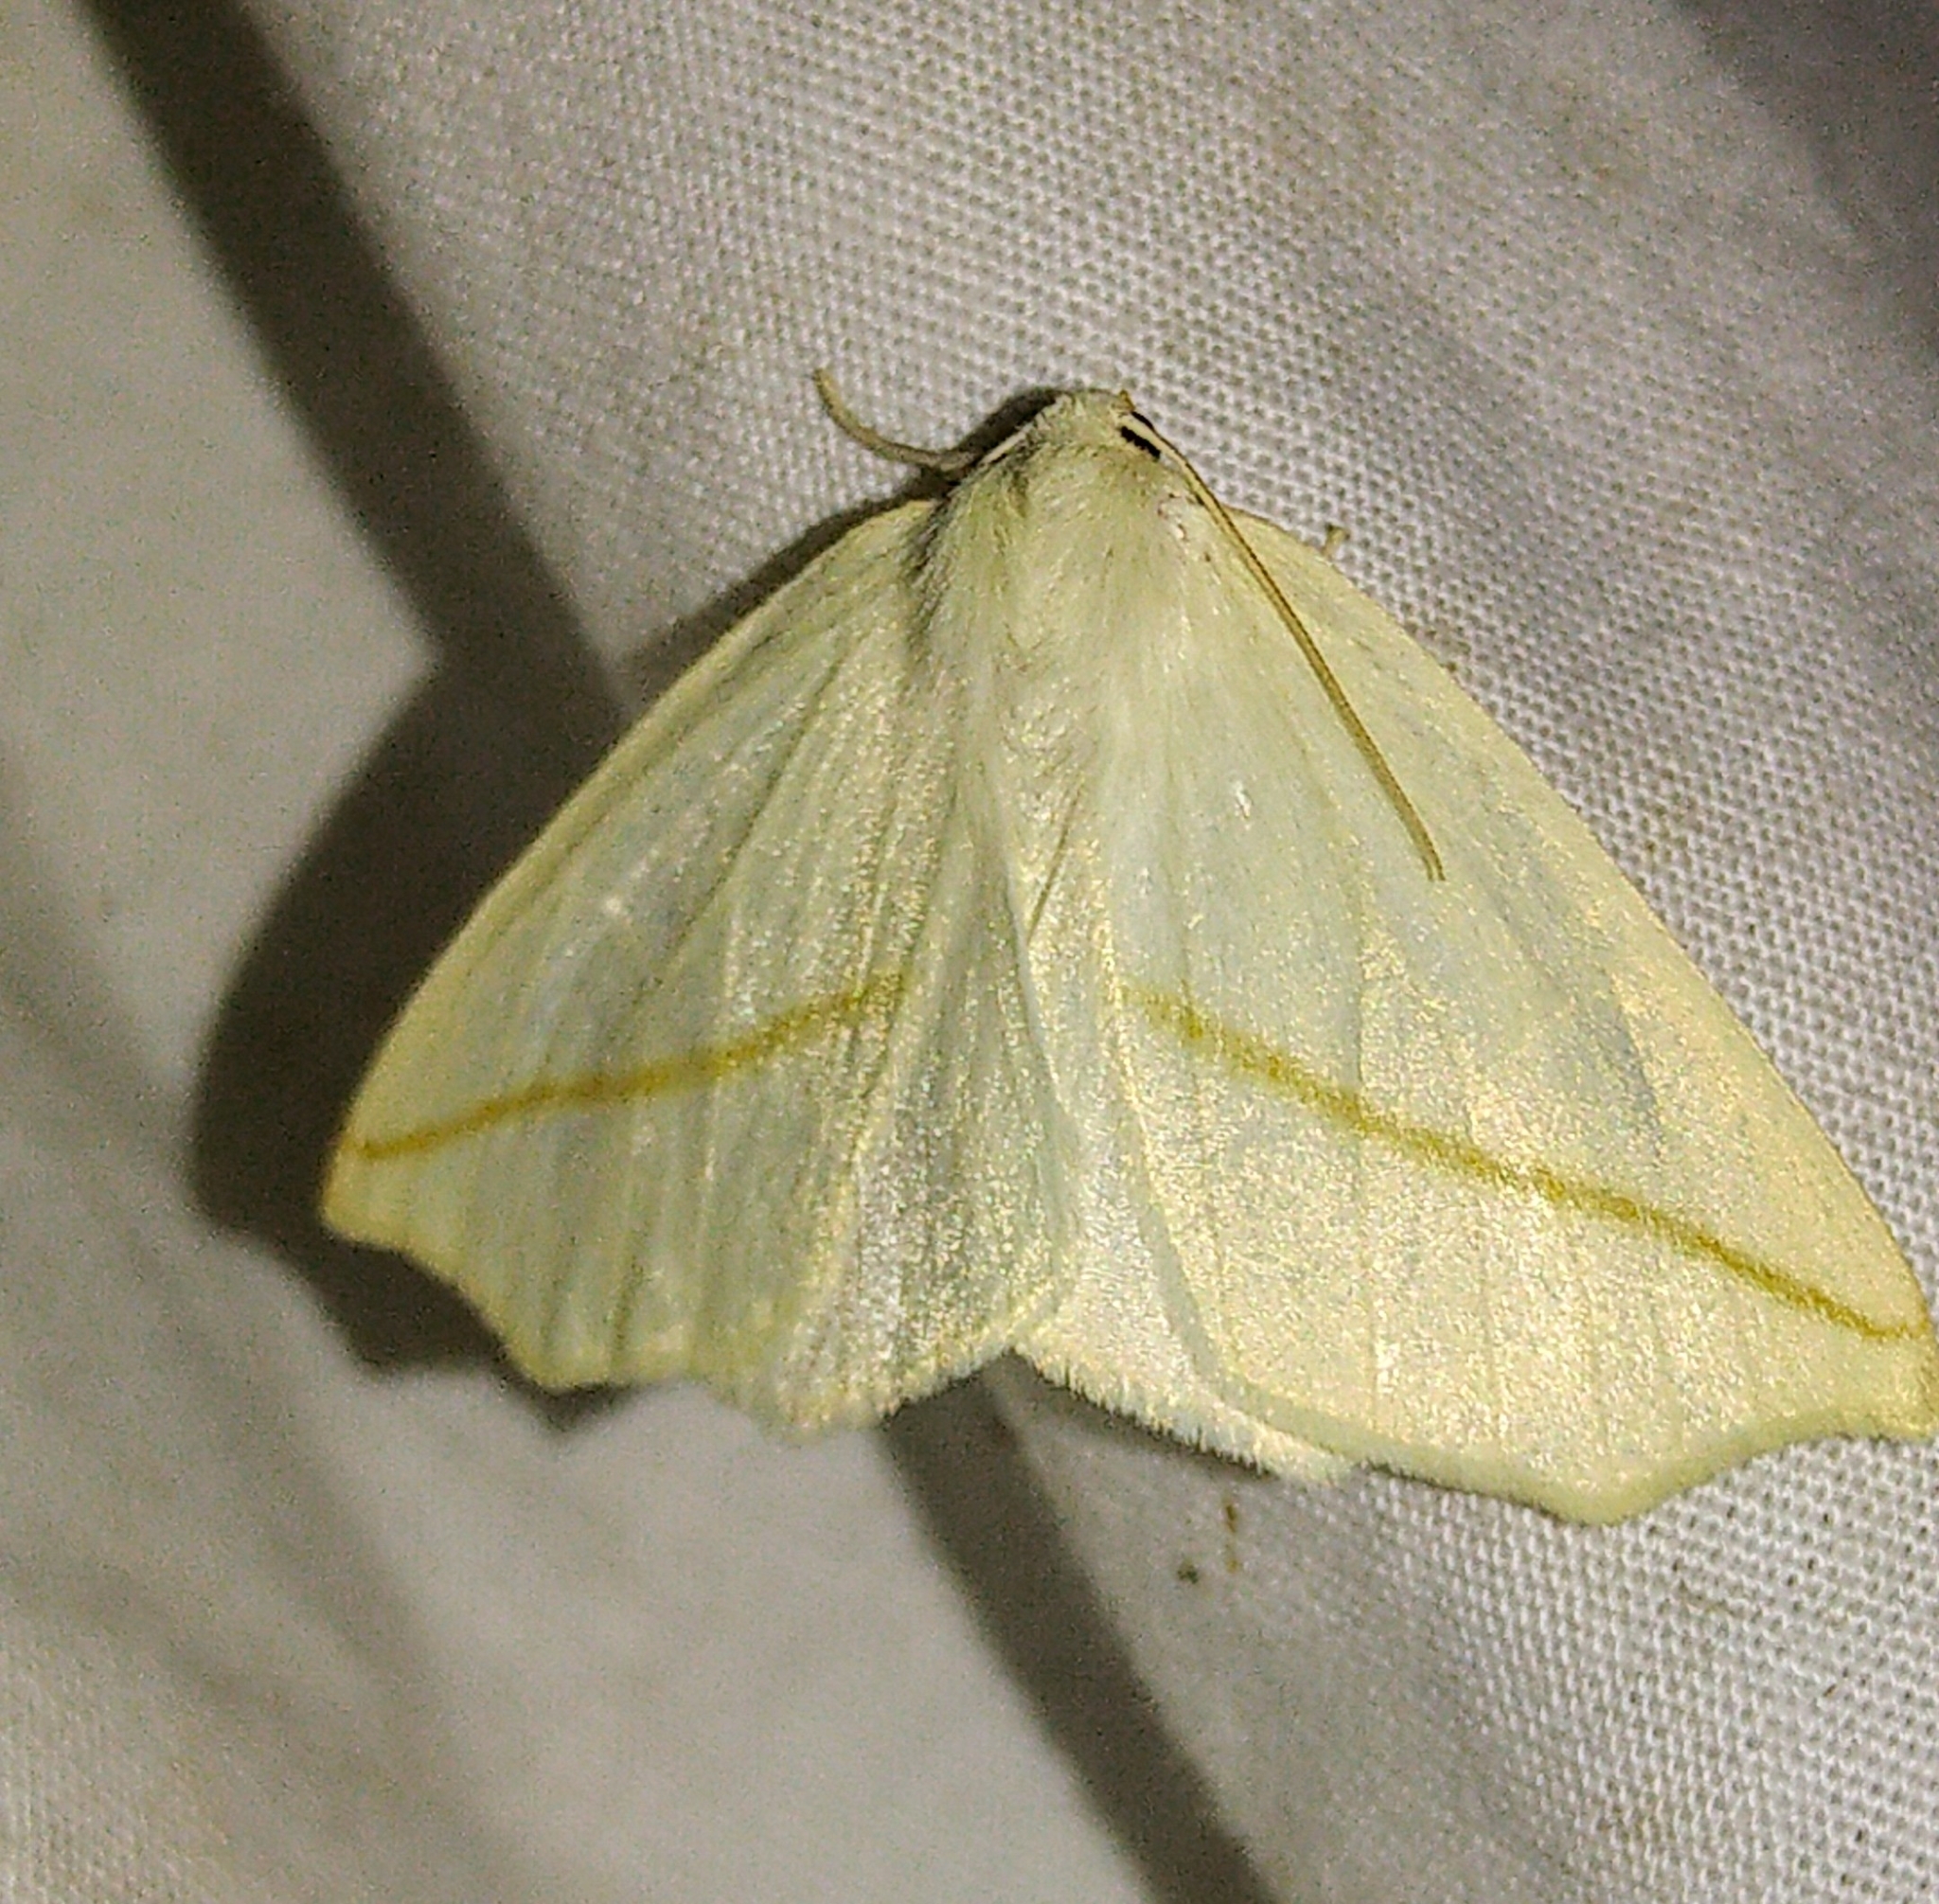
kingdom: Animalia
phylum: Arthropoda
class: Insecta
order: Lepidoptera
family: Geometridae
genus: Tetracis
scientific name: Tetracis cachexiata
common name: White slant-line
